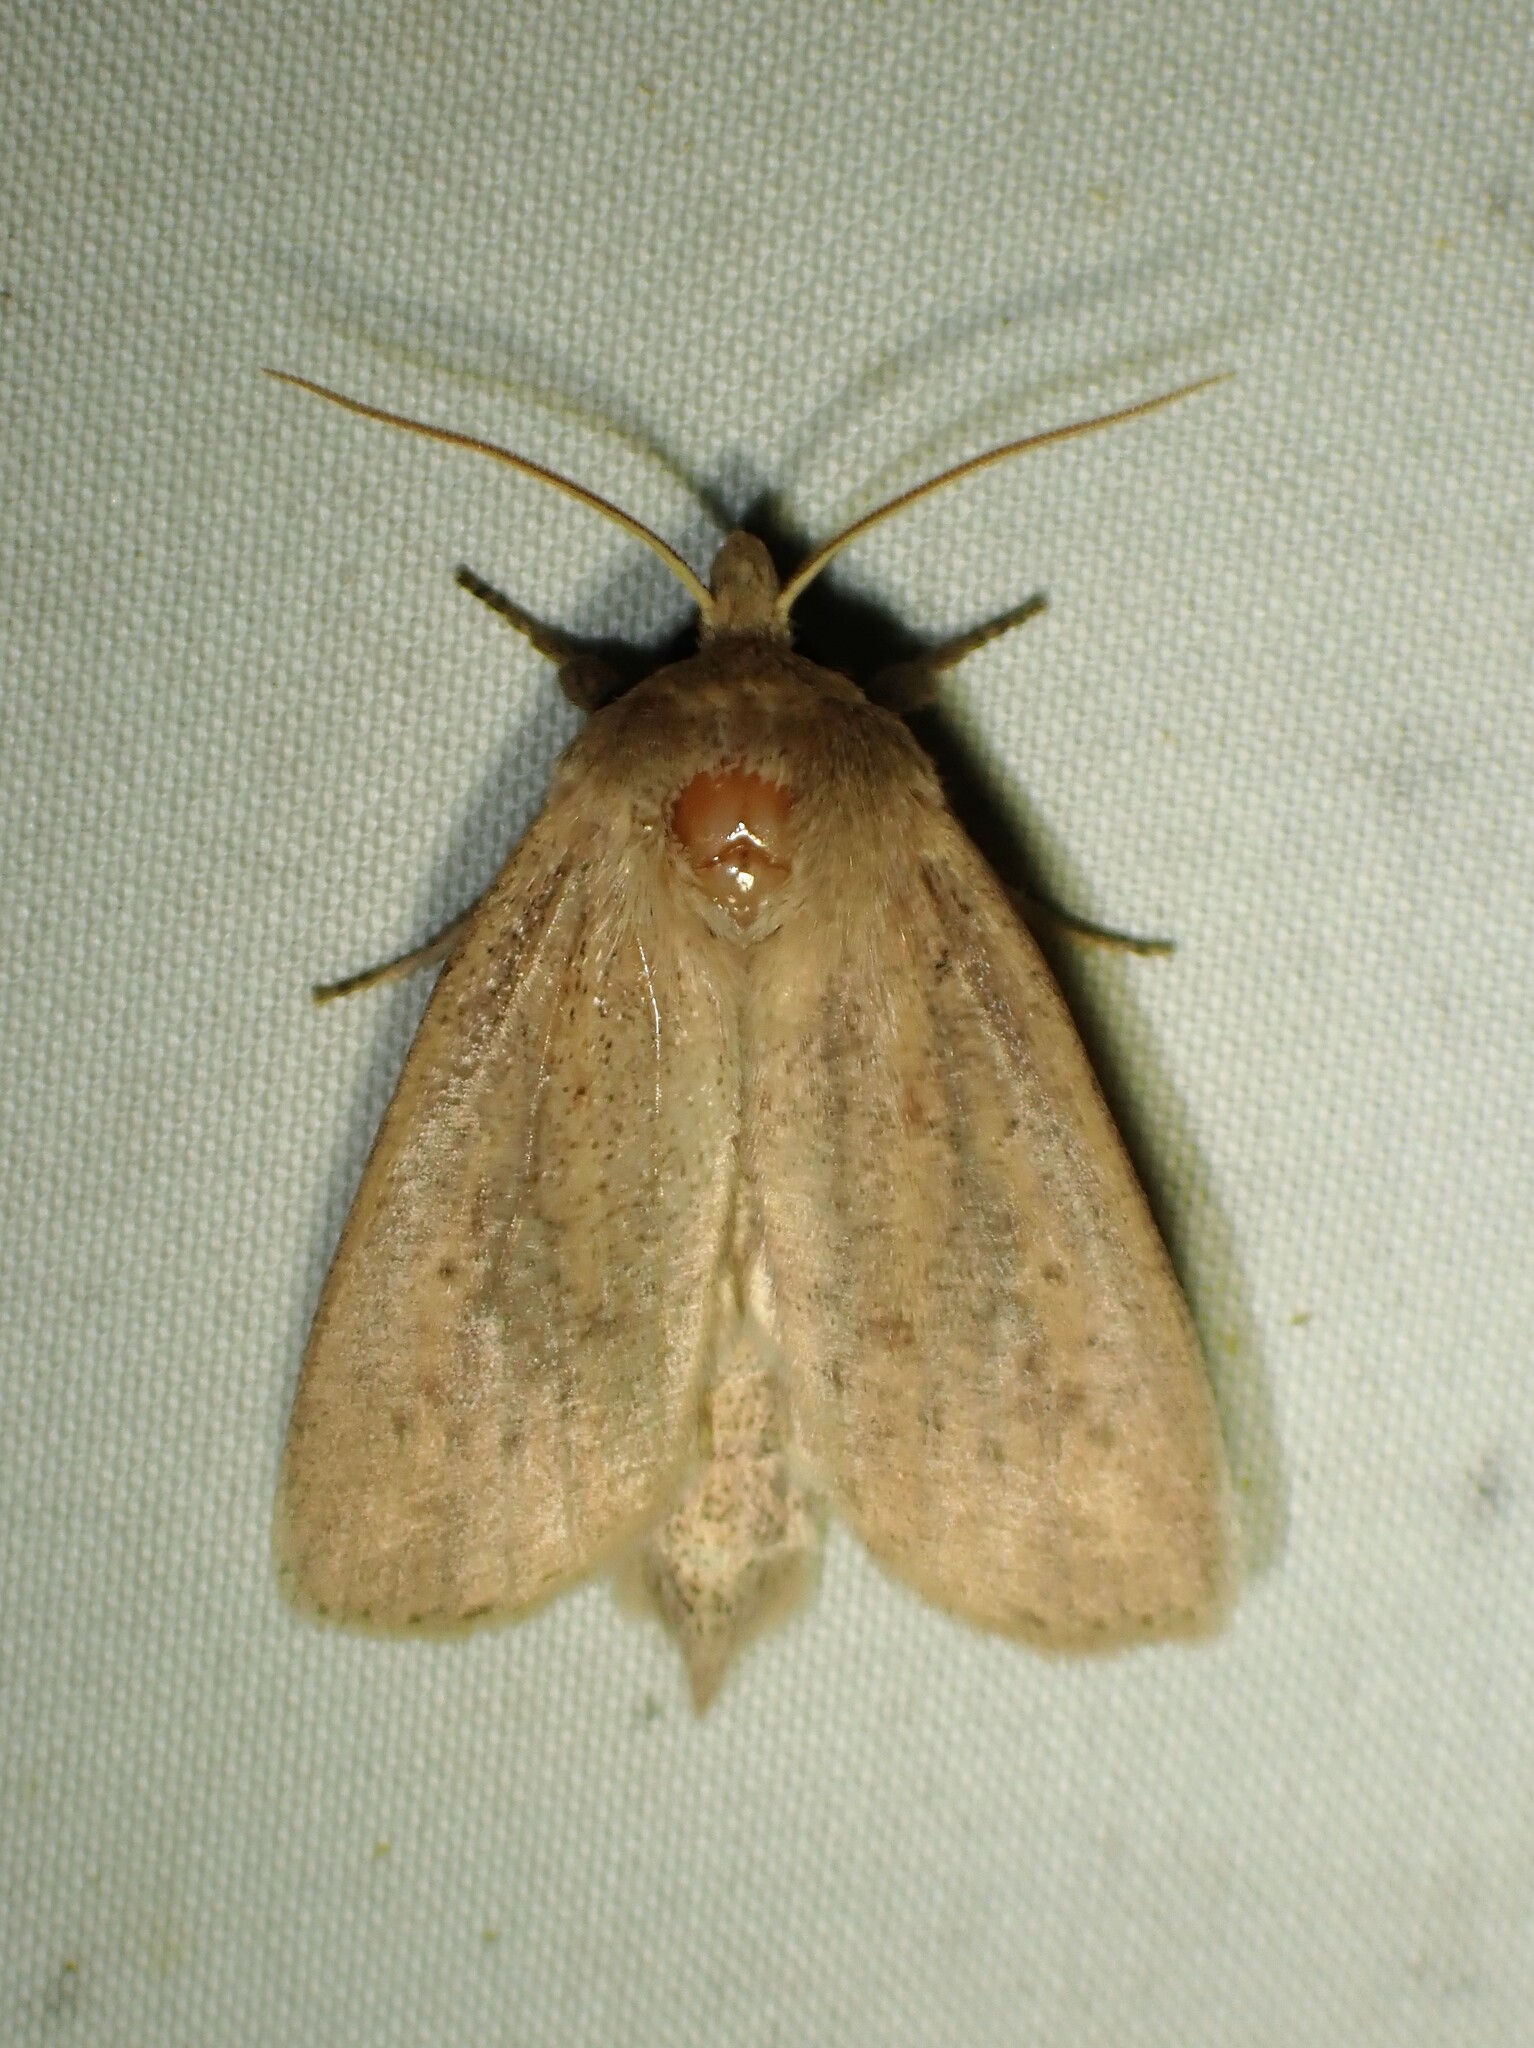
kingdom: Animalia
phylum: Arthropoda
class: Insecta
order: Lepidoptera
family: Noctuidae
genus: Globia
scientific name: Globia oblonga
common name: Oblong sedge borer moth
